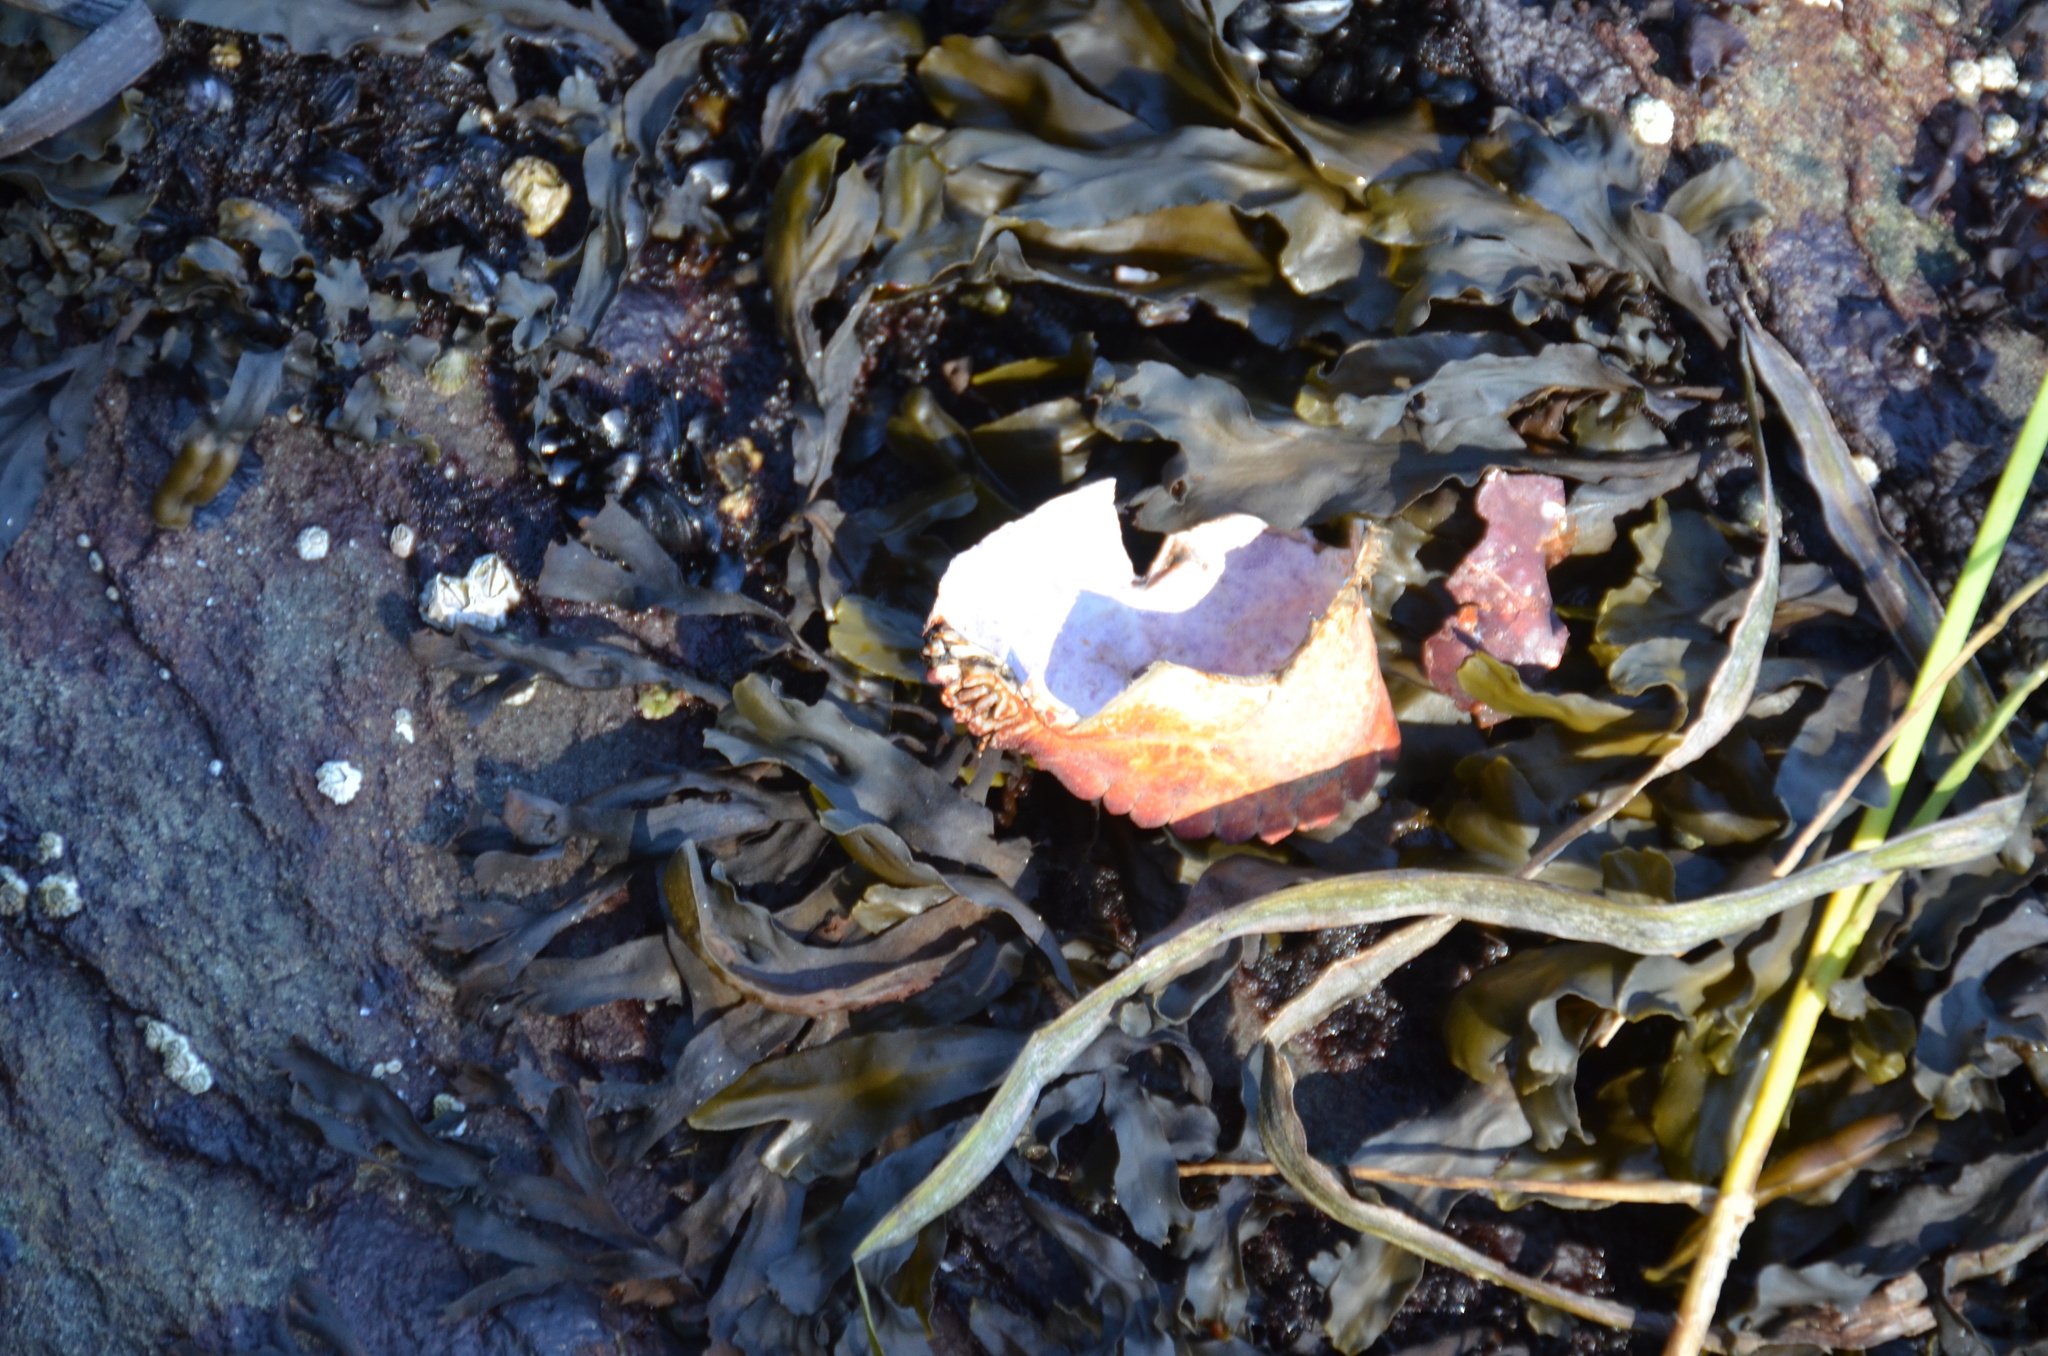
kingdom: Animalia
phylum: Arthropoda
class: Malacostraca
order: Decapoda
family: Cancridae
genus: Cancer
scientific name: Cancer productus
